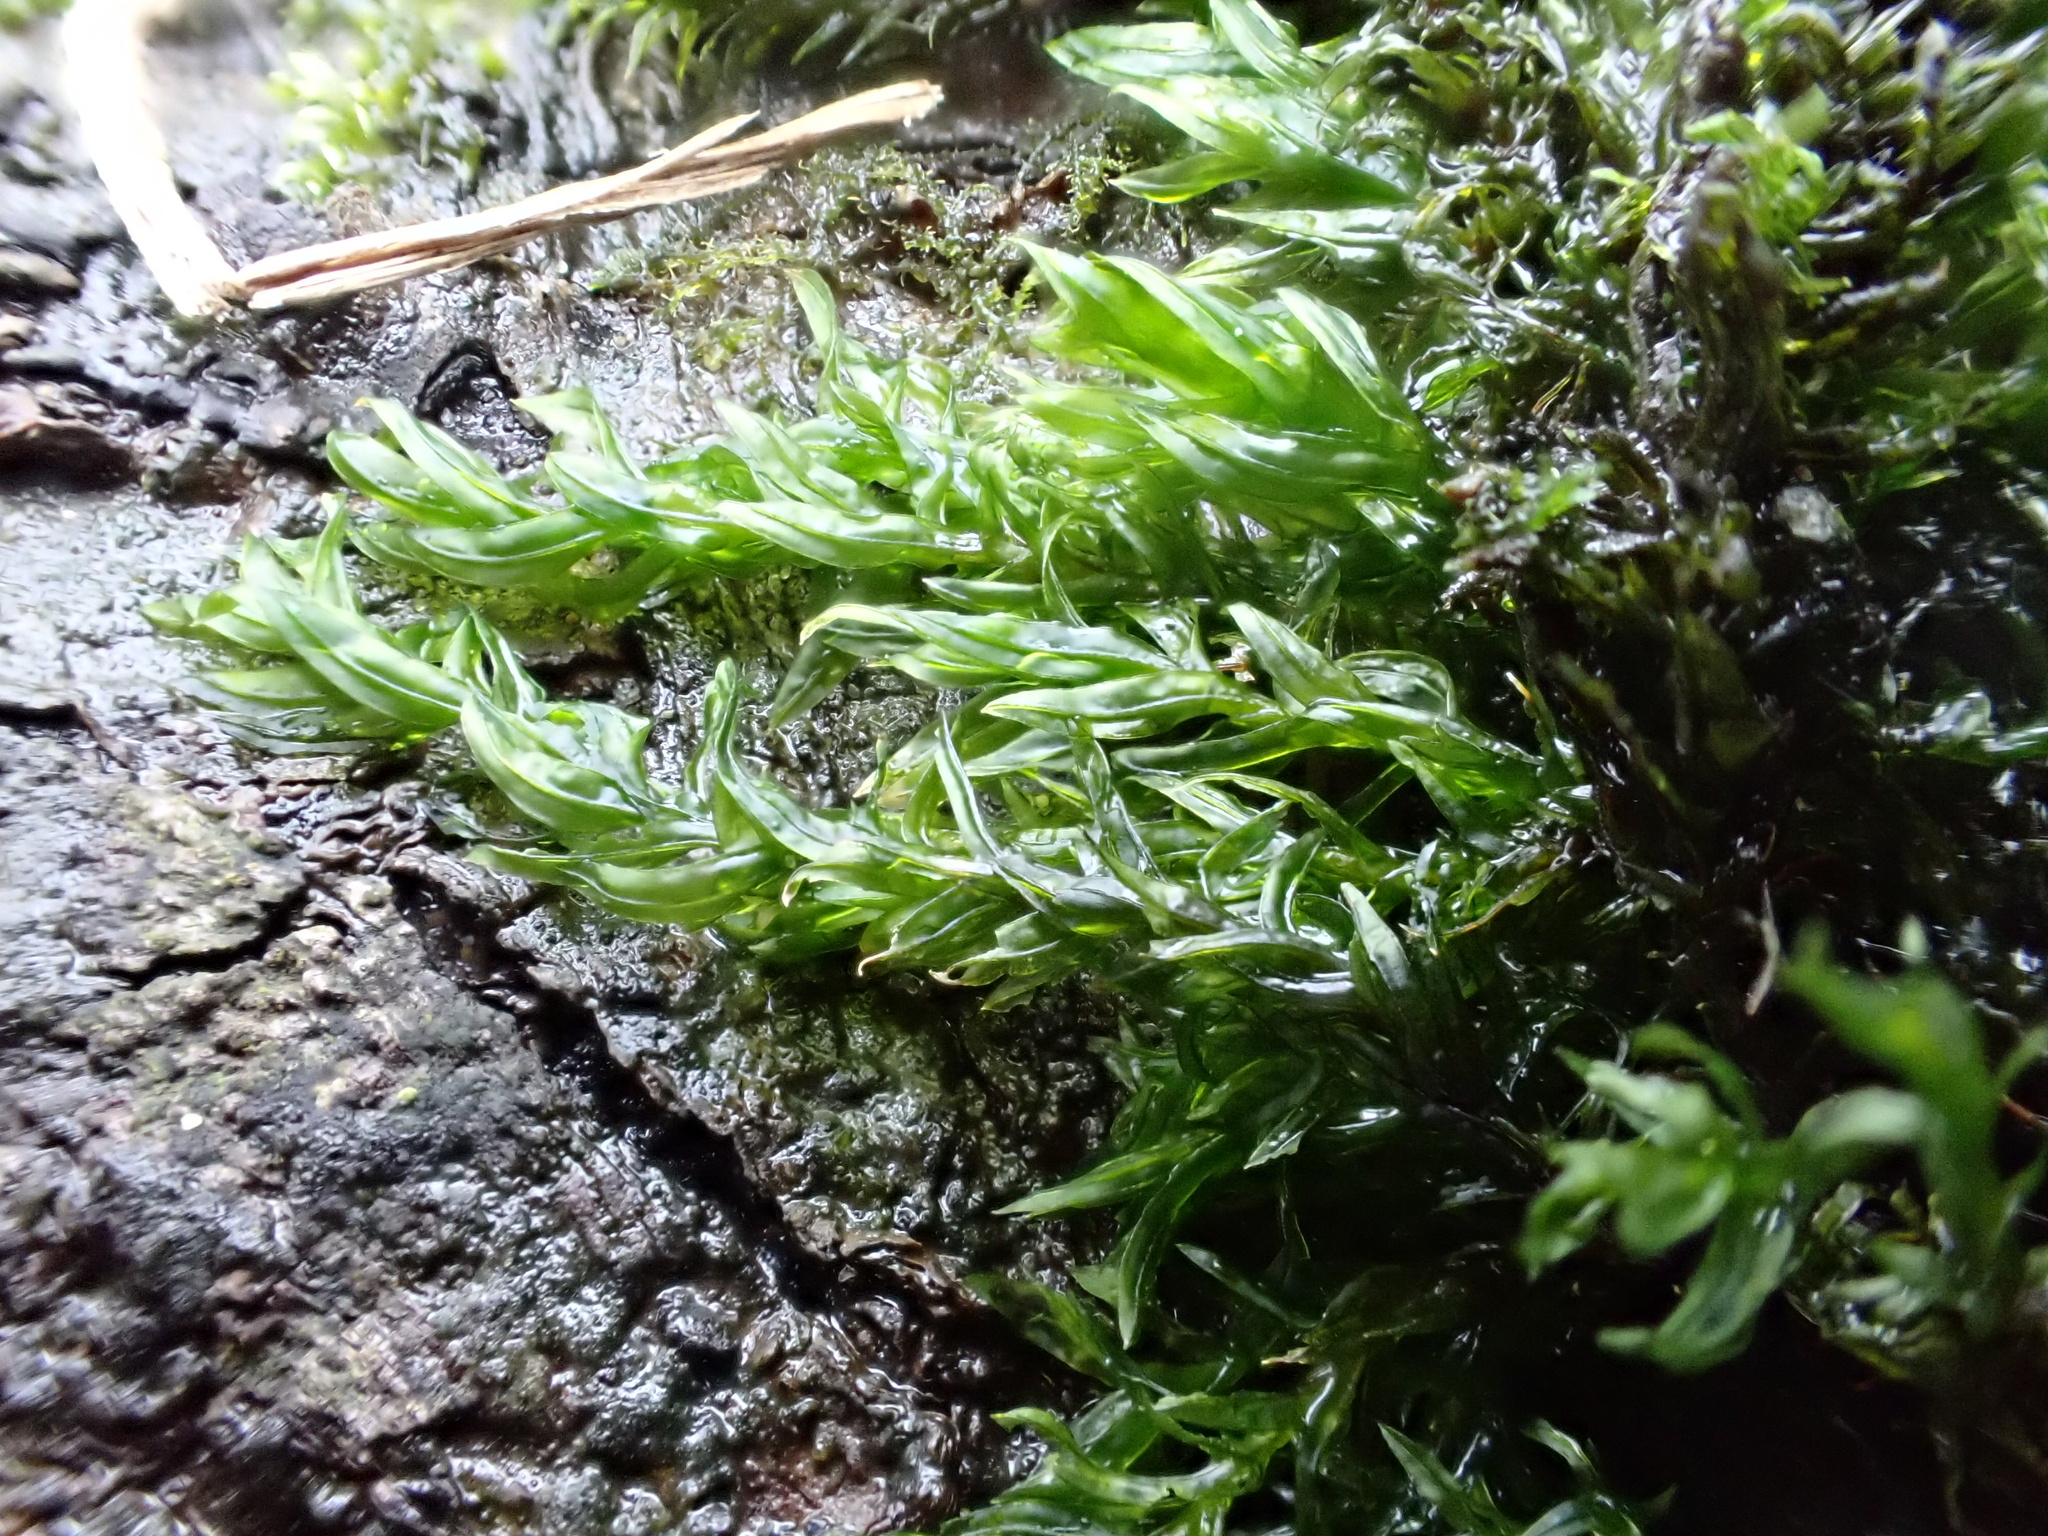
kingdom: Plantae
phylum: Bryophyta
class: Bryopsida
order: Pottiales
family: Pottiaceae
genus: Cinclidotus
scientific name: Cinclidotus fontinaloides
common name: Smaller lattice-moss
